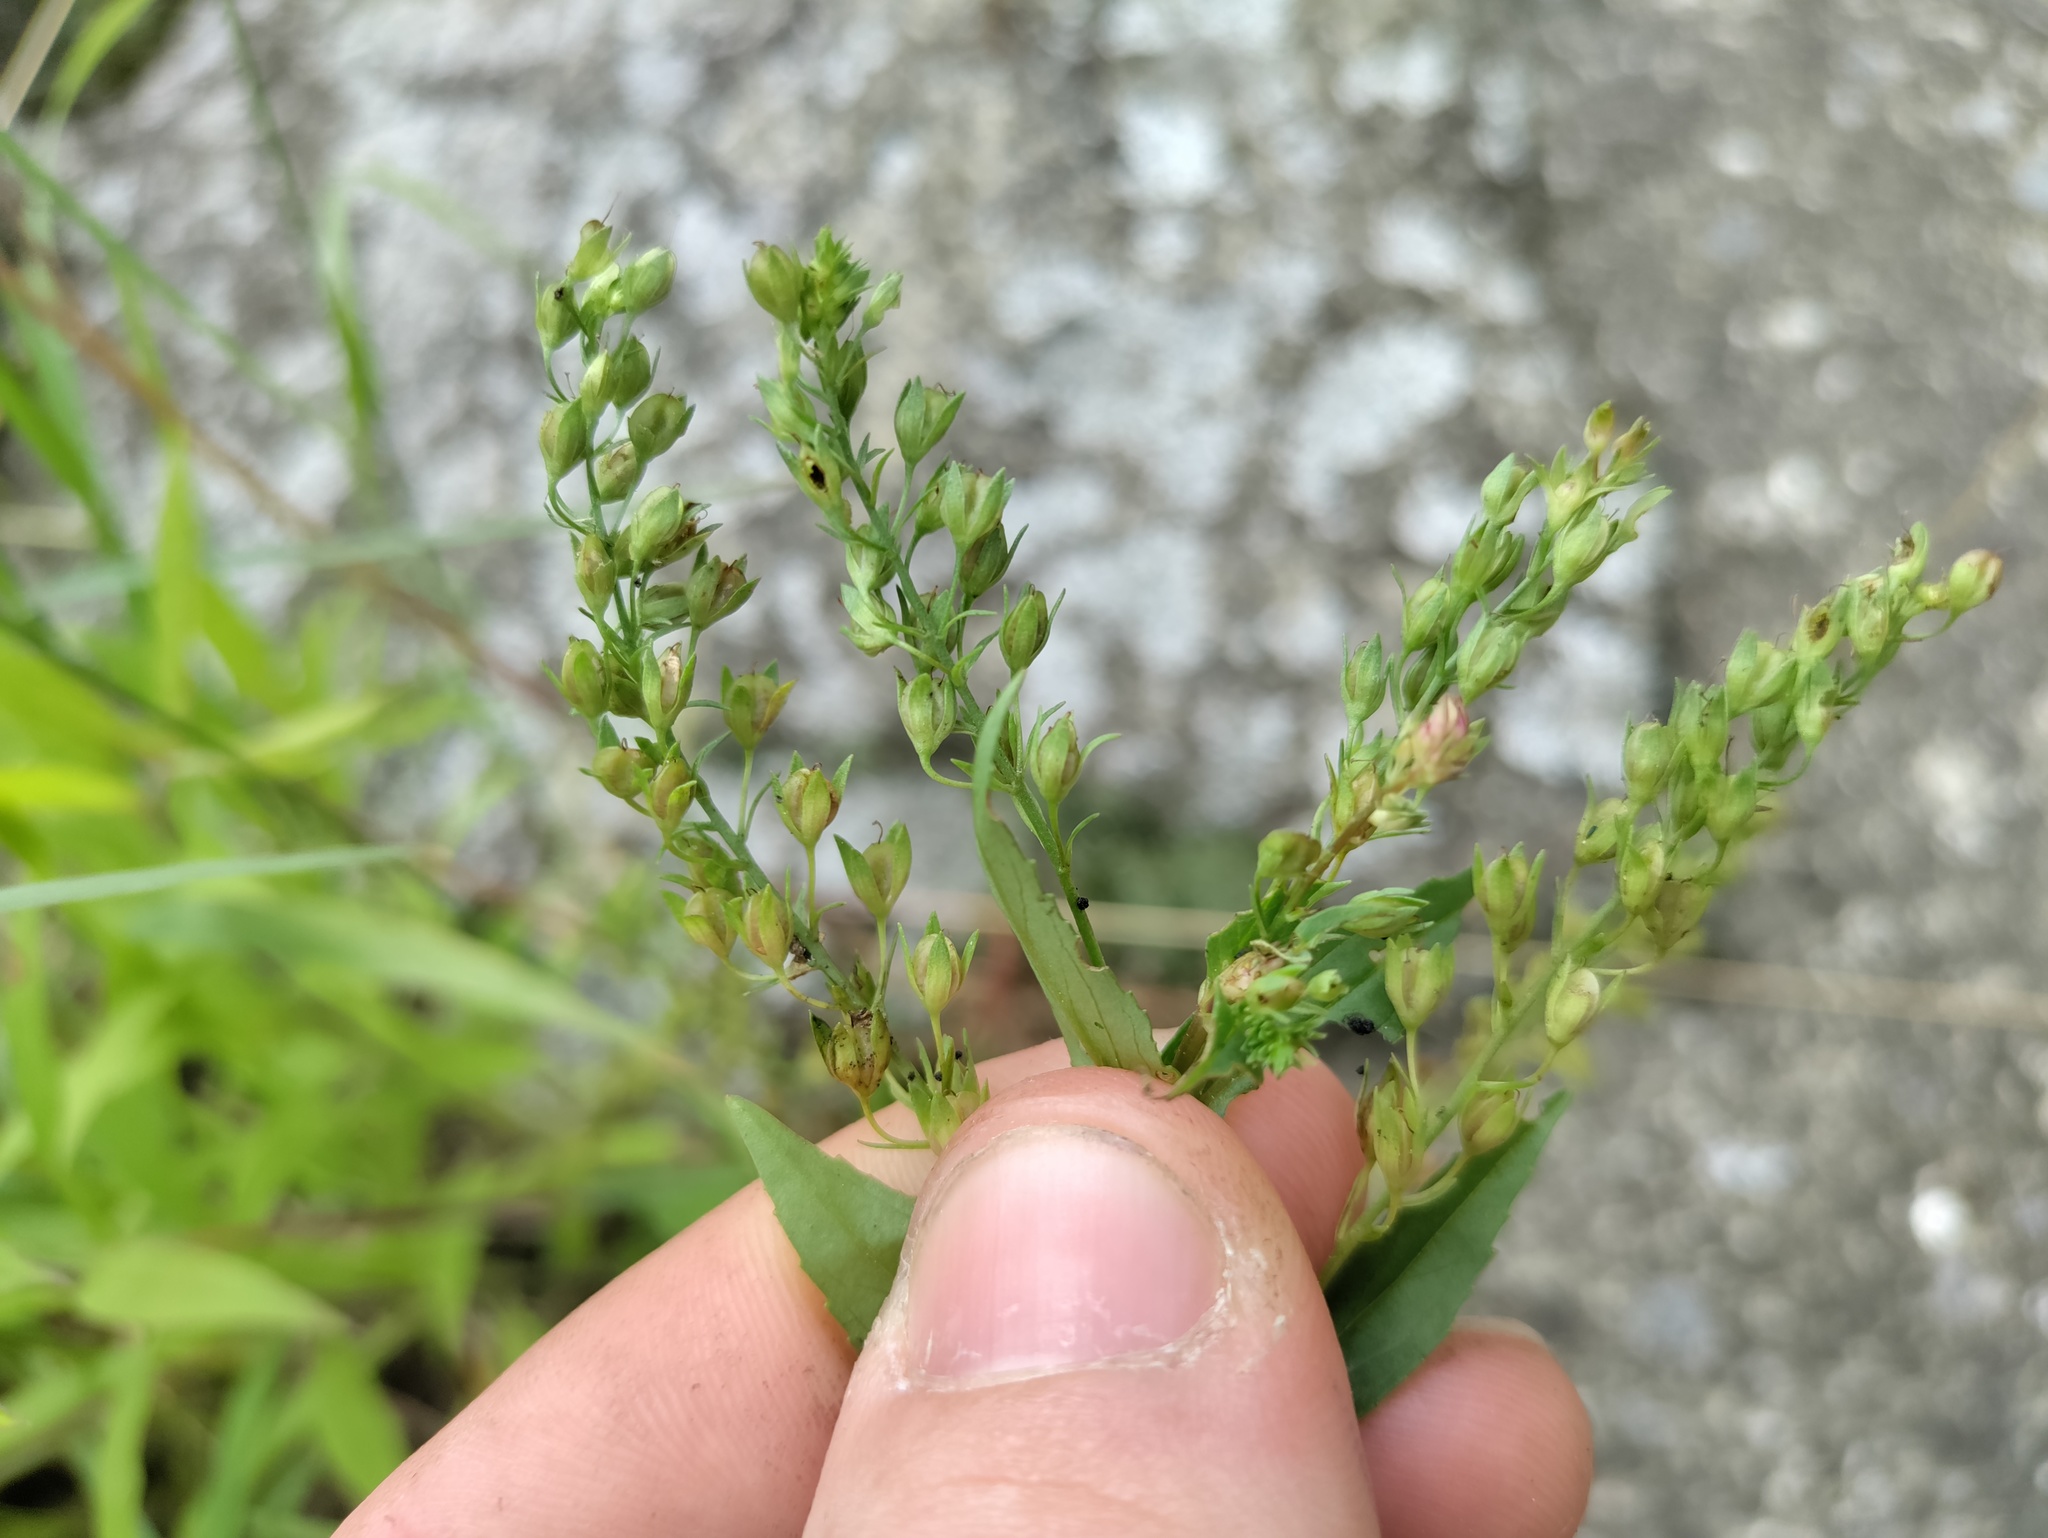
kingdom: Plantae
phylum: Tracheophyta
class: Magnoliopsida
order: Lamiales
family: Plantaginaceae
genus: Veronica
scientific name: Veronica anagallis-aquatica
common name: Water speedwell
